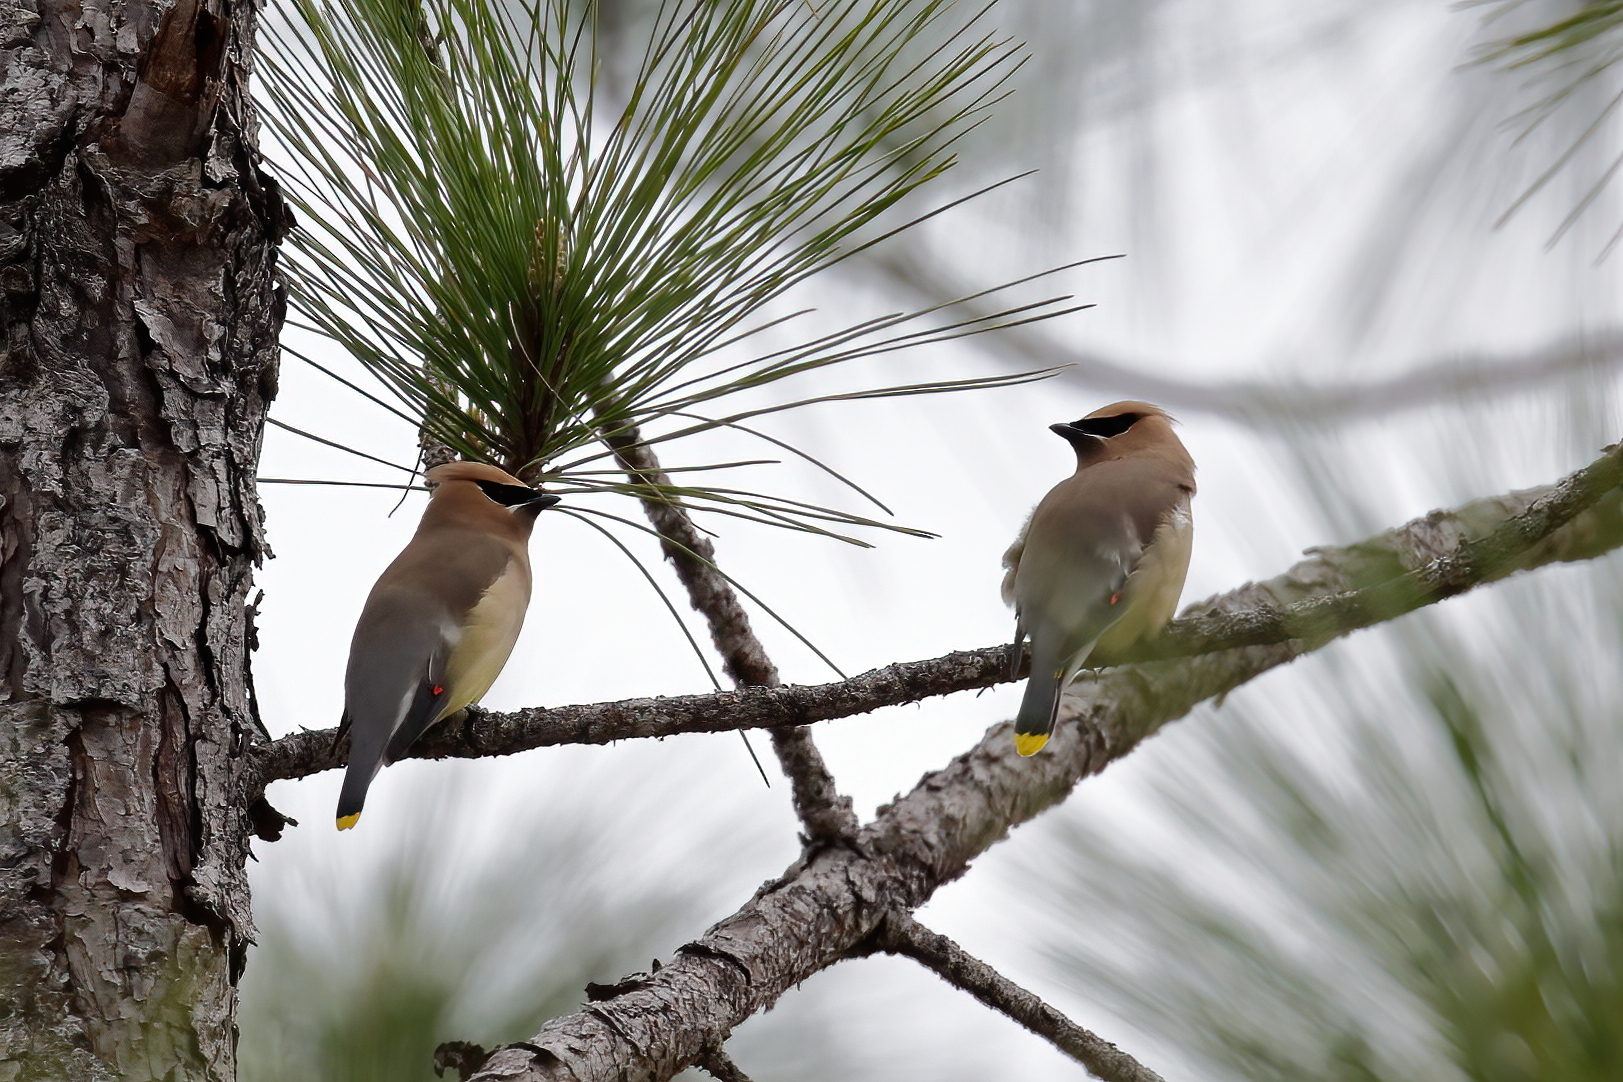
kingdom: Animalia
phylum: Chordata
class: Aves
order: Passeriformes
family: Bombycillidae
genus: Bombycilla
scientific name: Bombycilla cedrorum
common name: Cedar waxwing
